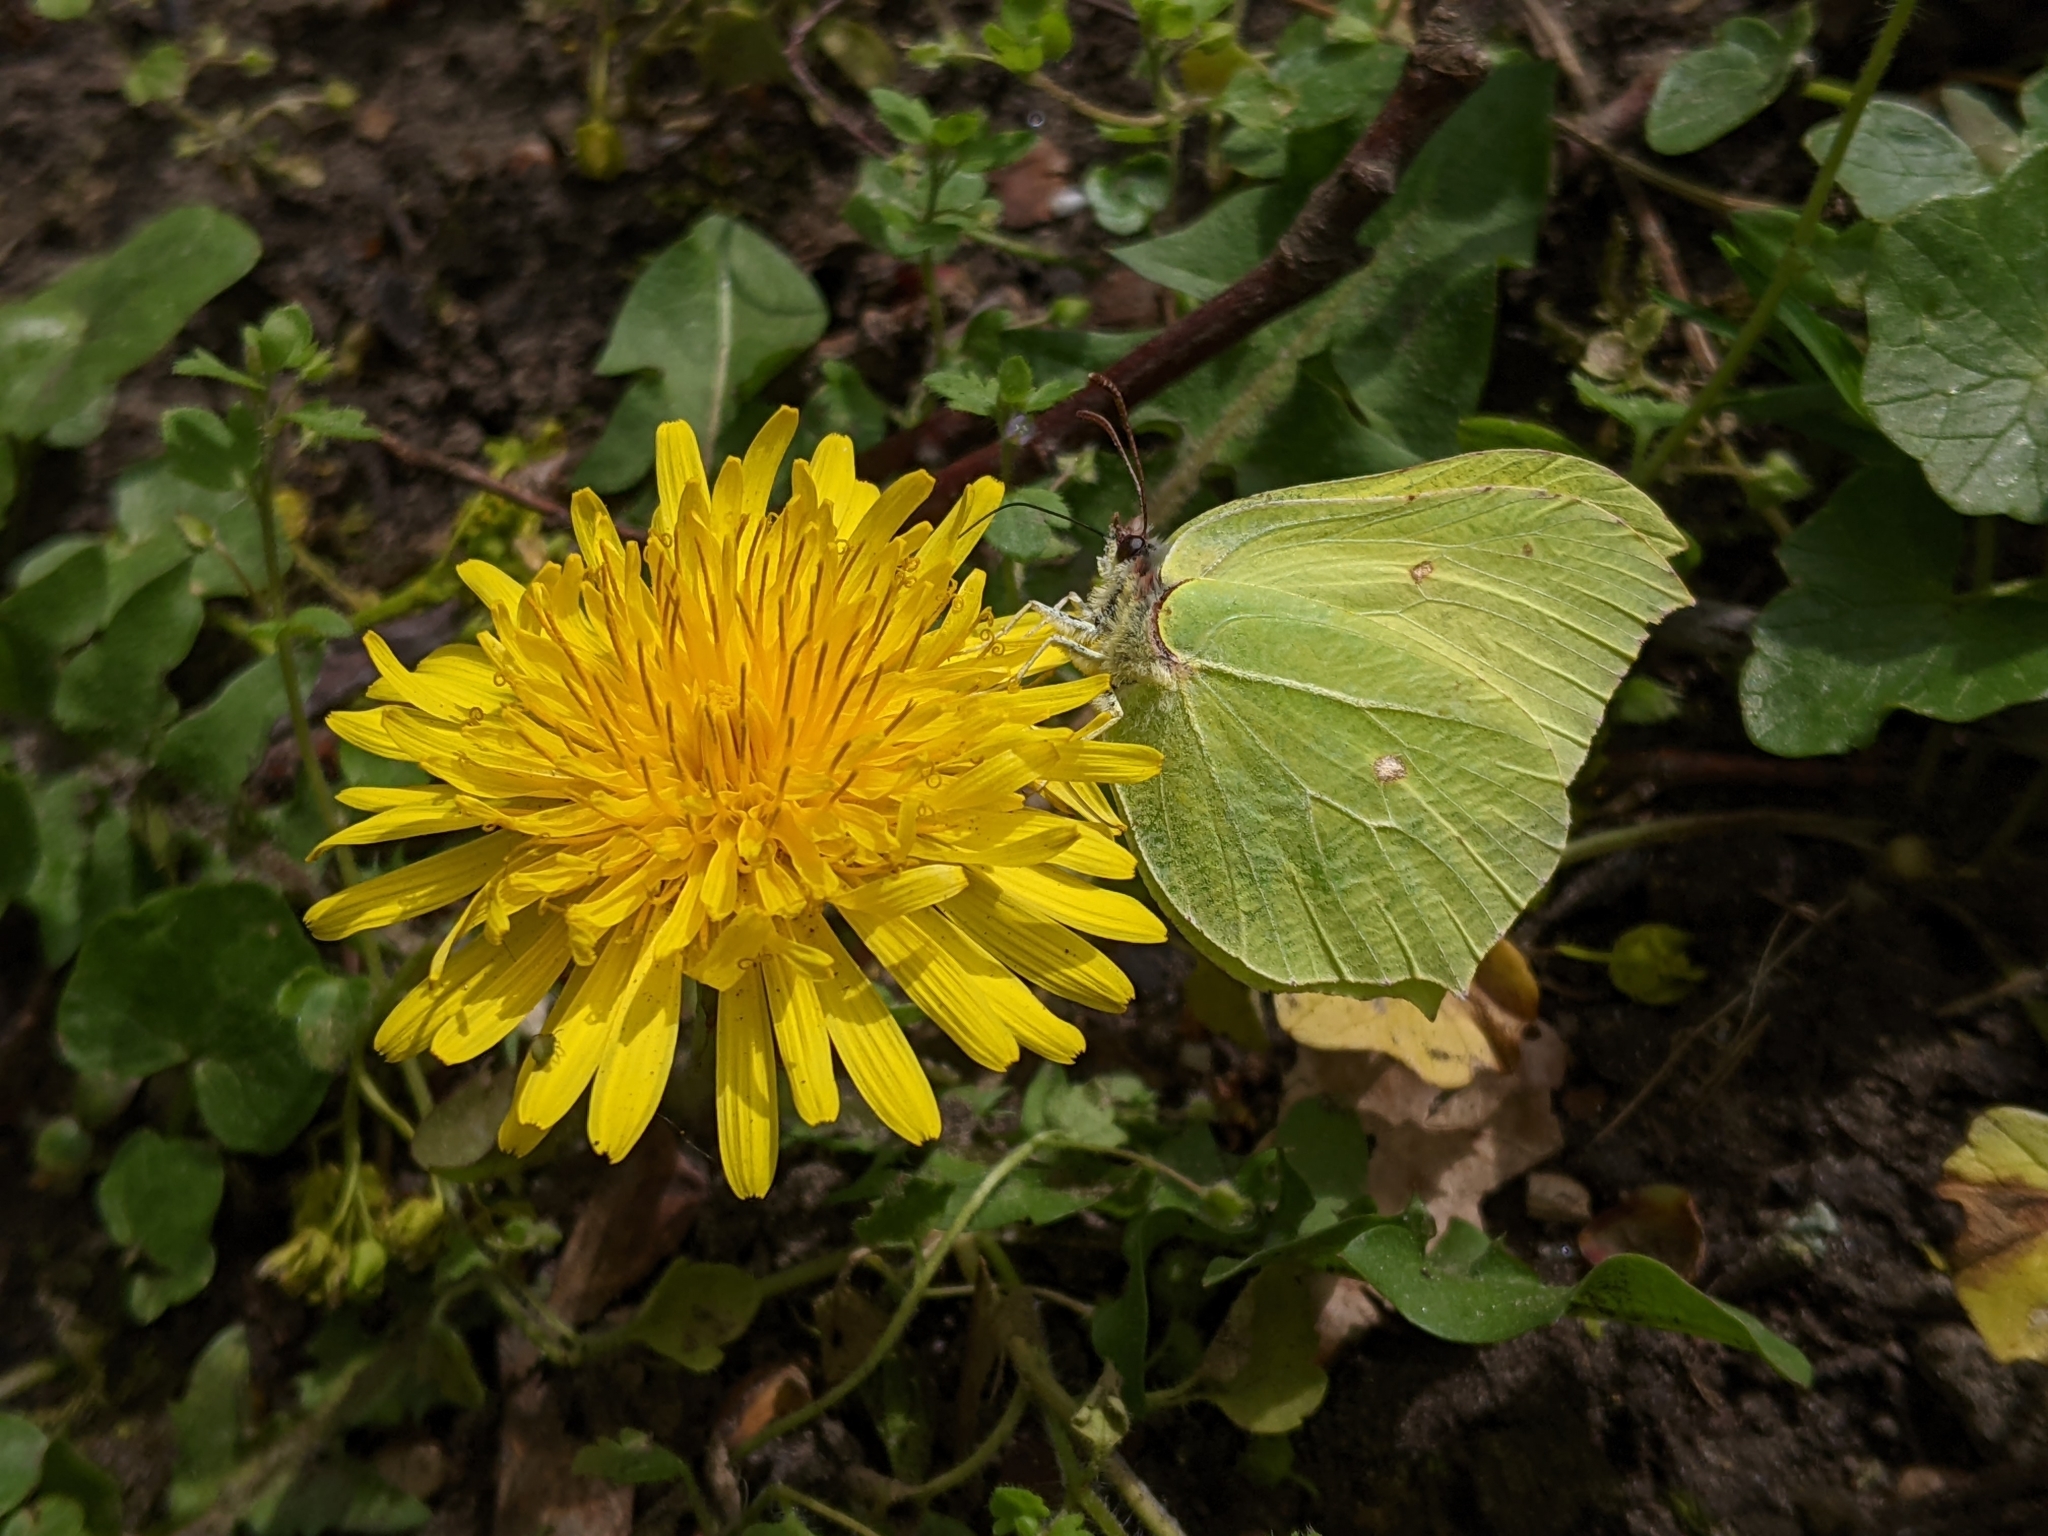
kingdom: Animalia
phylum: Arthropoda
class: Insecta
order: Lepidoptera
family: Pieridae
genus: Gonepteryx
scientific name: Gonepteryx rhamni
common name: Brimstone
